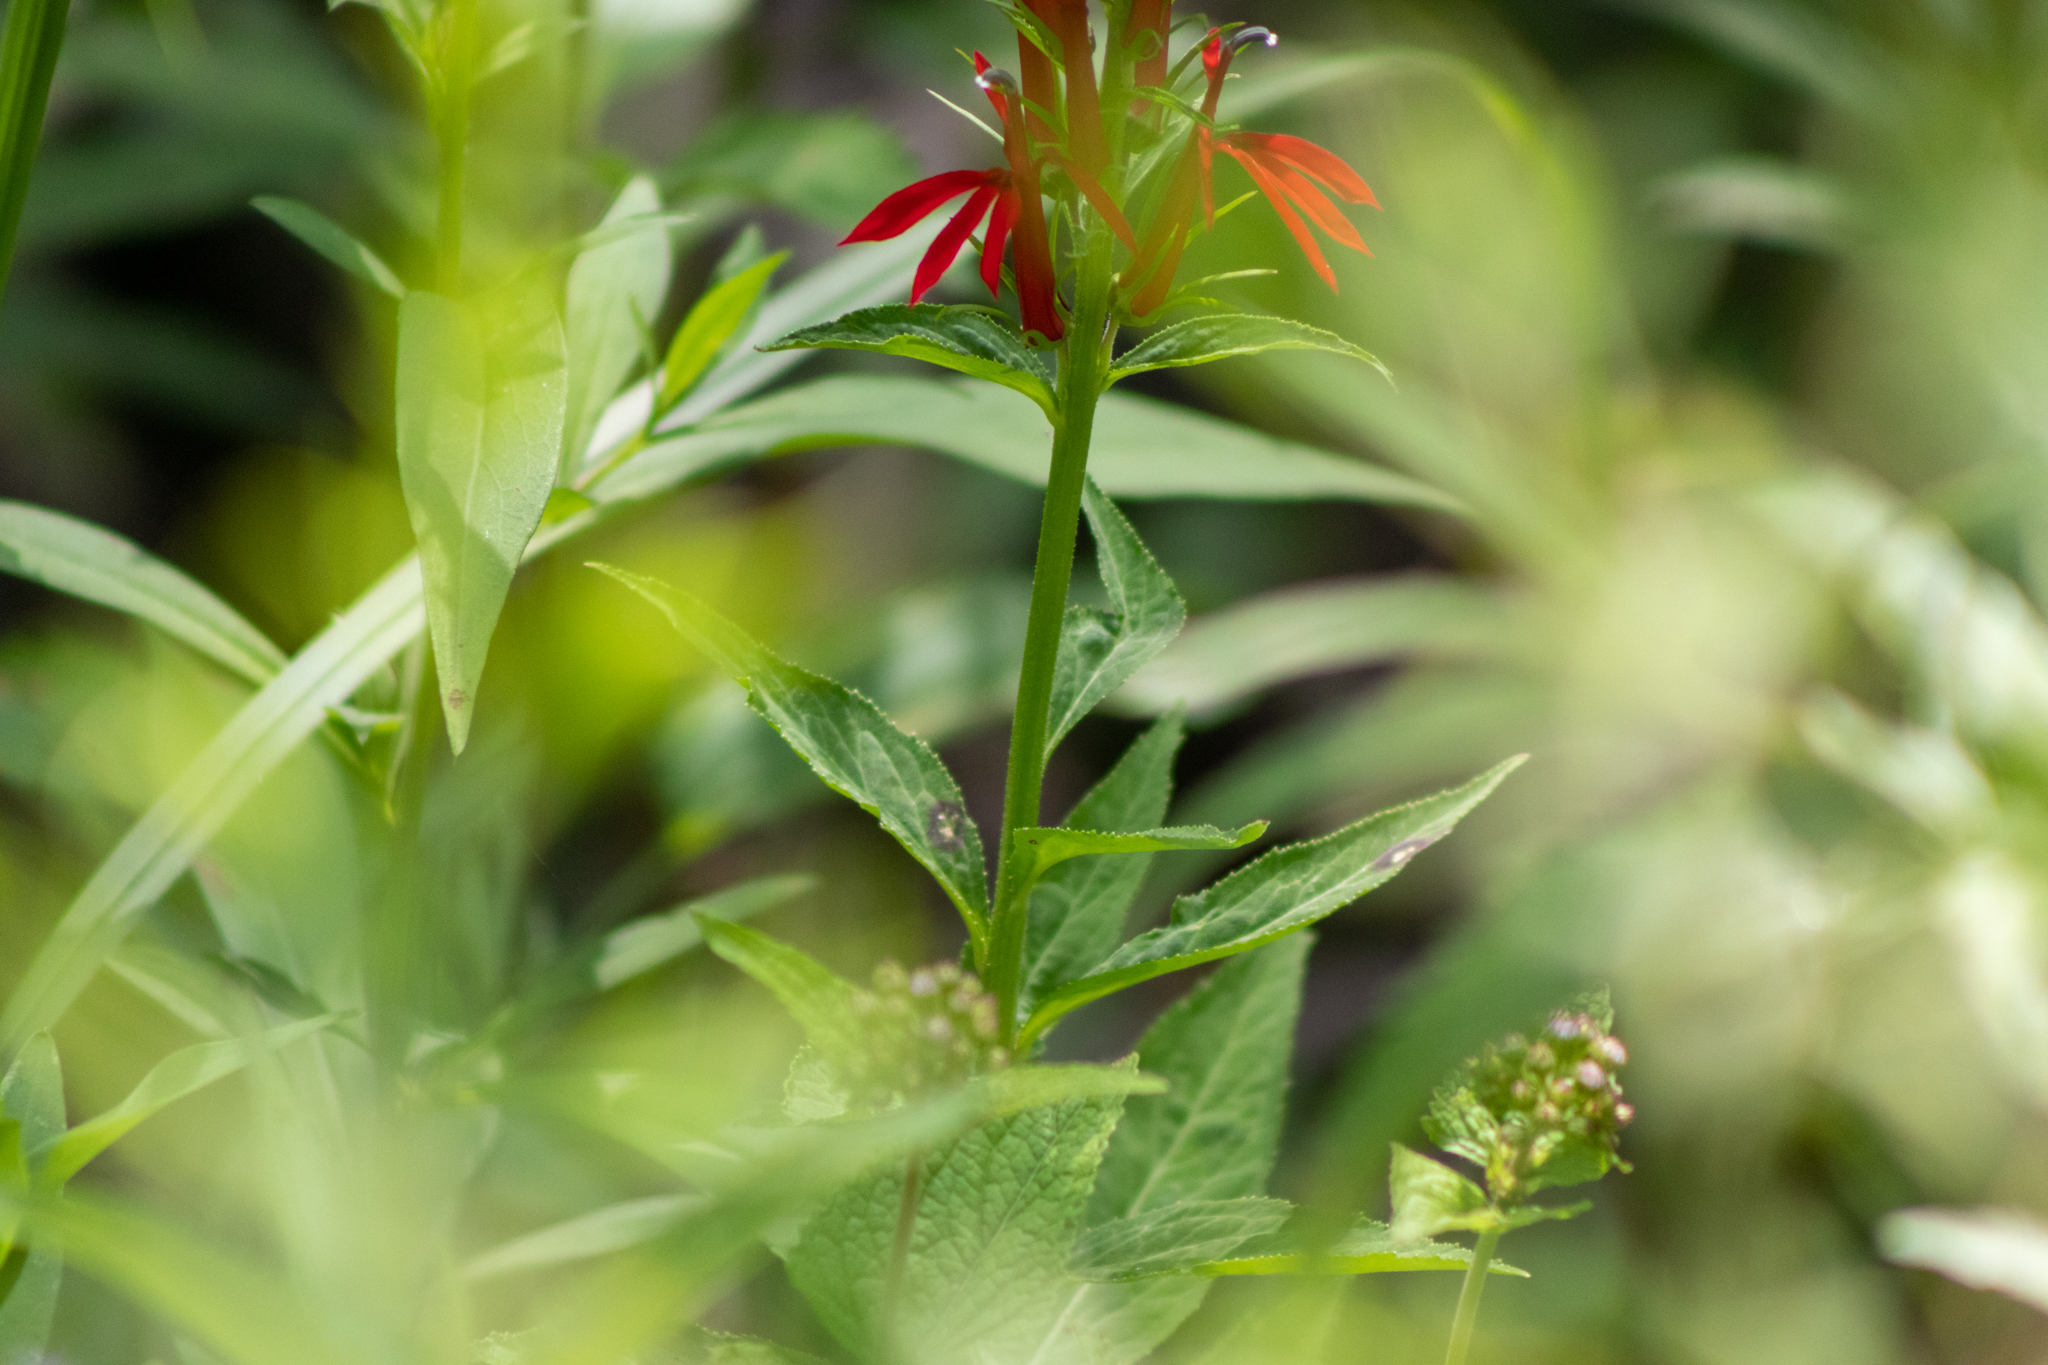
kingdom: Plantae
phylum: Tracheophyta
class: Magnoliopsida
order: Asterales
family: Campanulaceae
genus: Lobelia
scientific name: Lobelia cardinalis
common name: Cardinal flower
